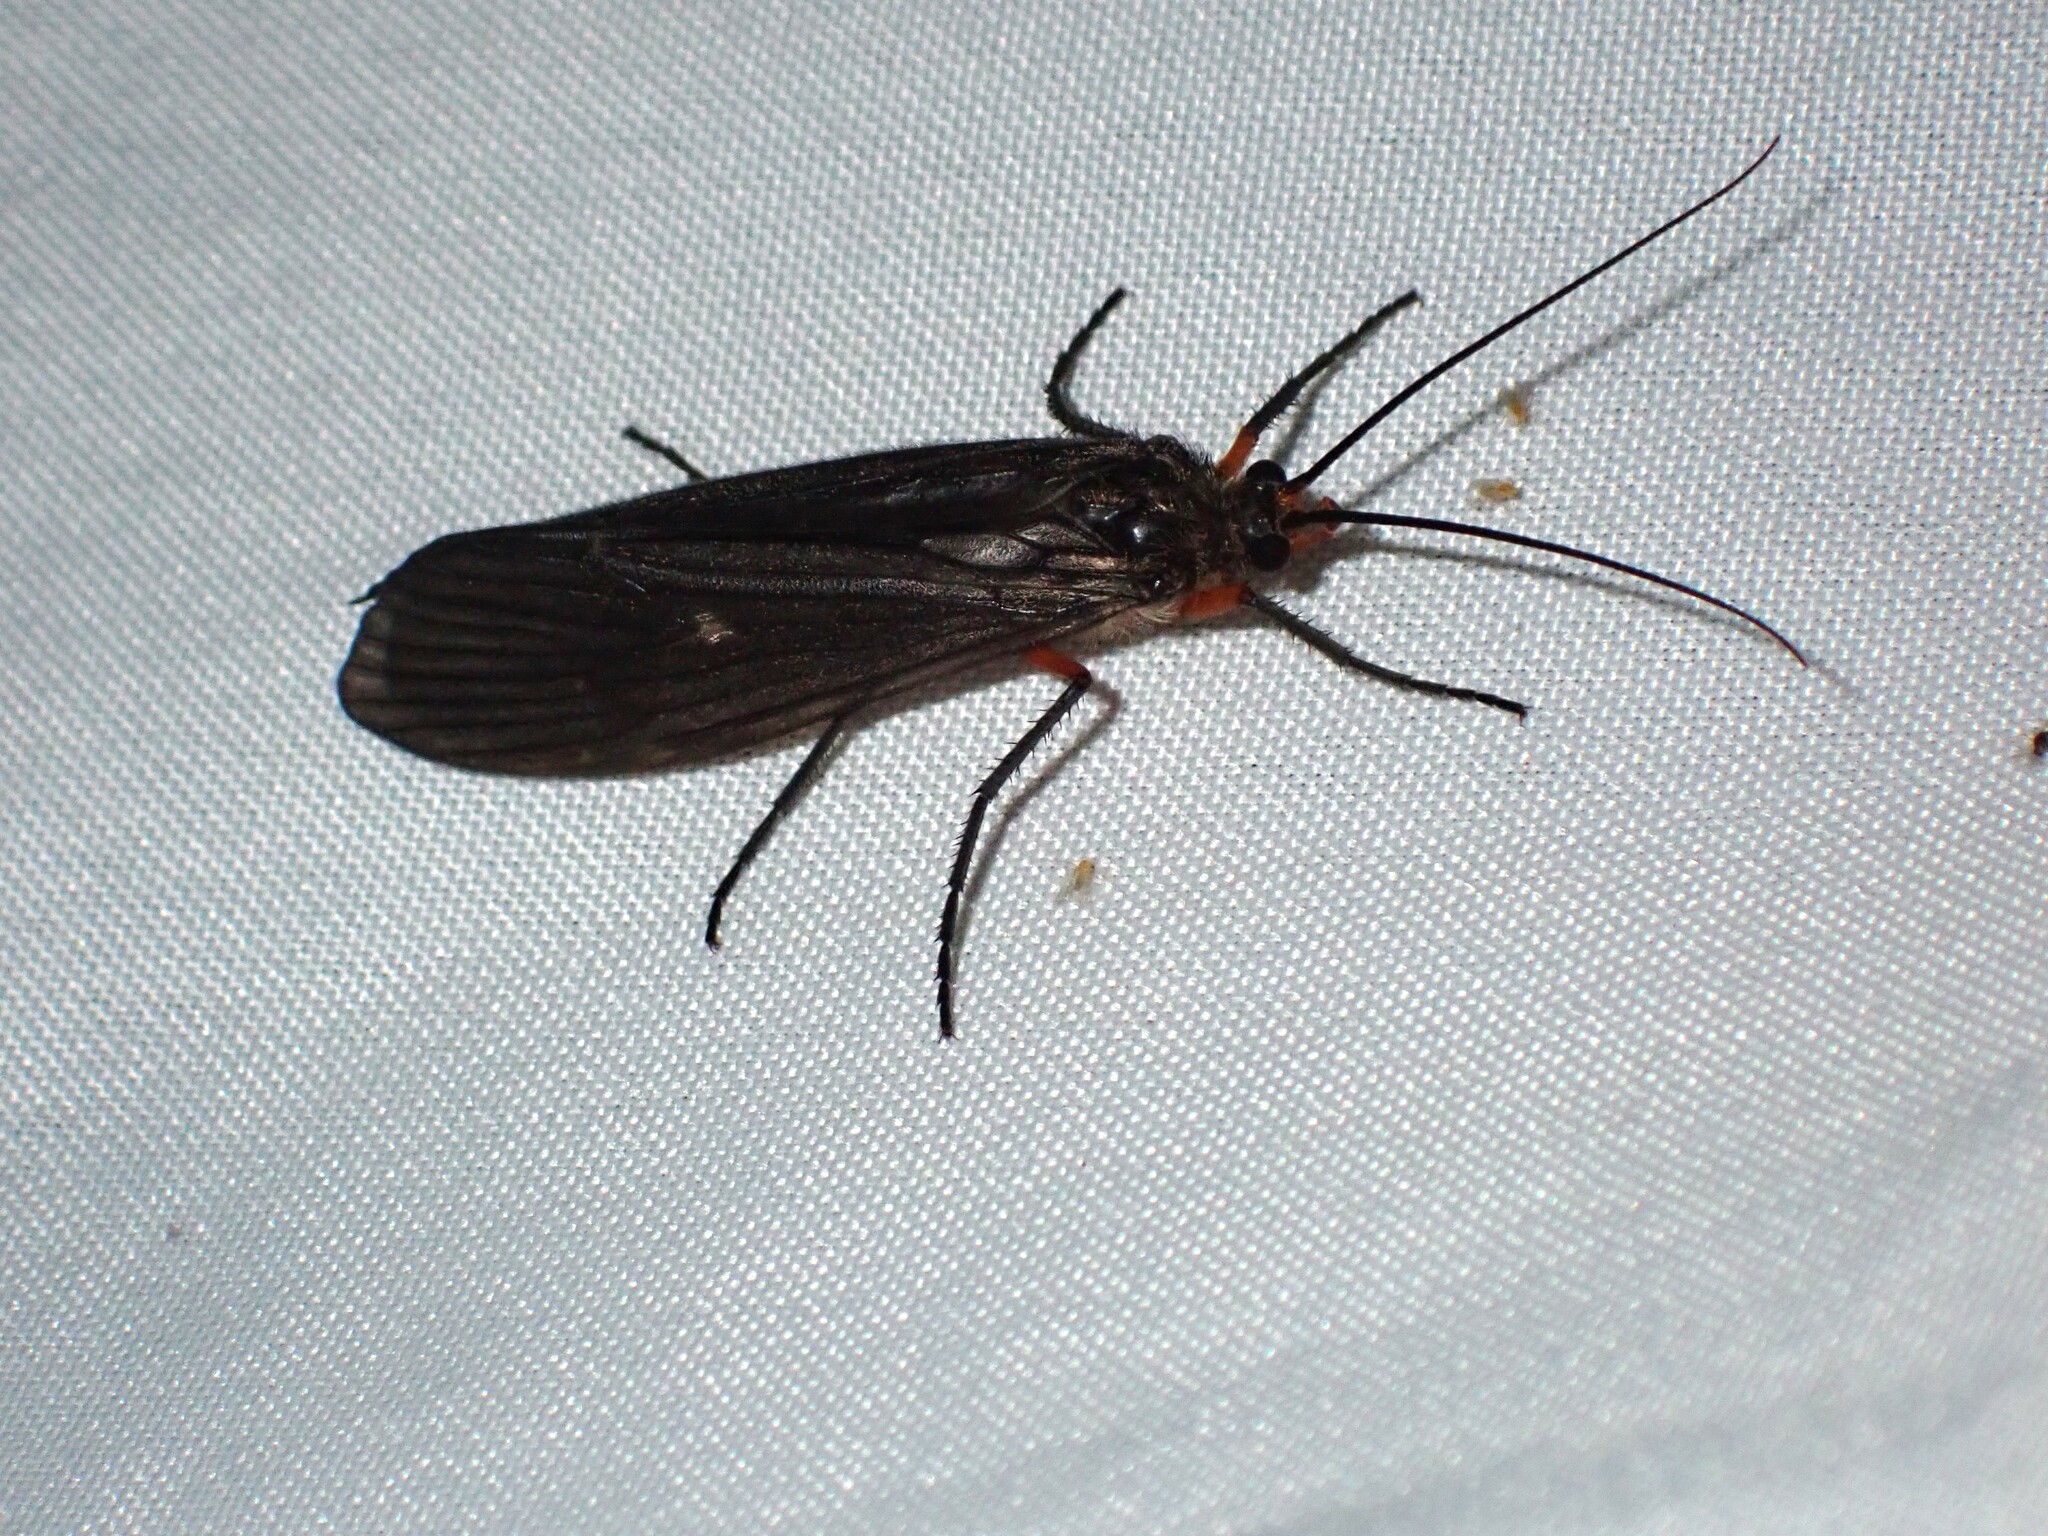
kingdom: Animalia
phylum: Arthropoda
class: Insecta
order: Trichoptera
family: Limnephilidae
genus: Dicosmoecus
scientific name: Dicosmoecus atripes
